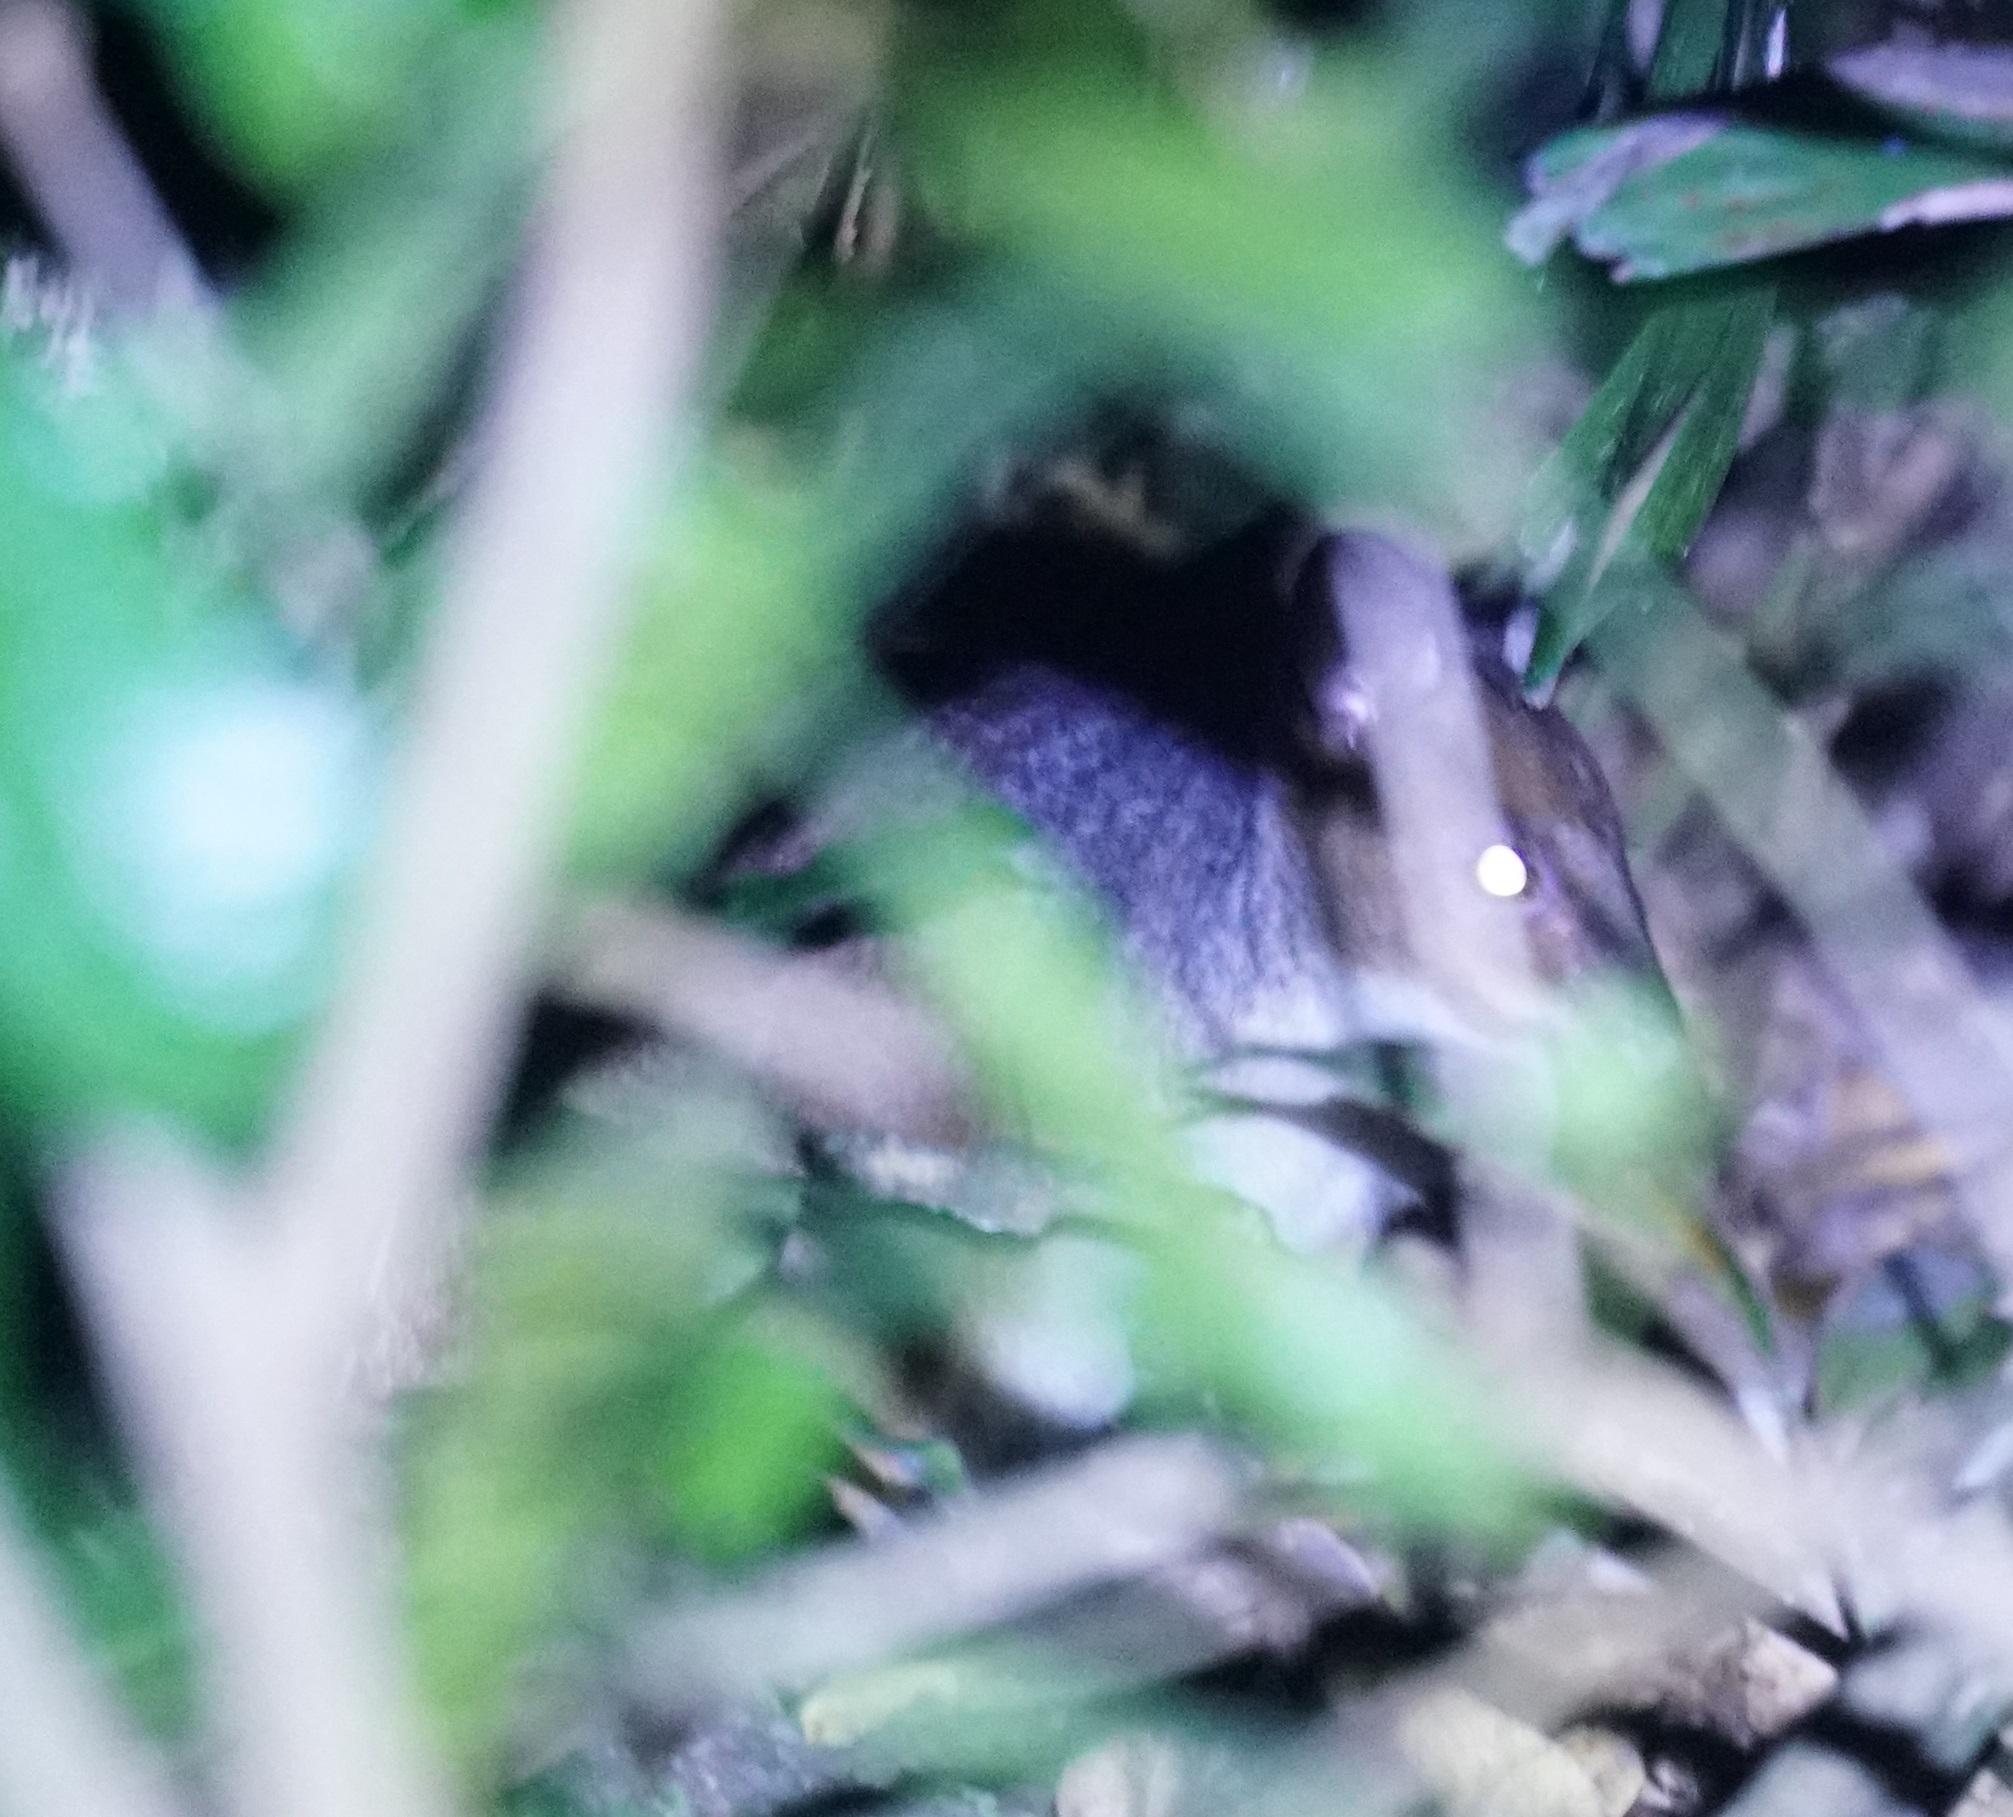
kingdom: Animalia
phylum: Chordata
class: Mammalia
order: Diprotodontia
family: Macropodidae
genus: Thylogale
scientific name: Thylogale stigmatica
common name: Red-legged pademelon
